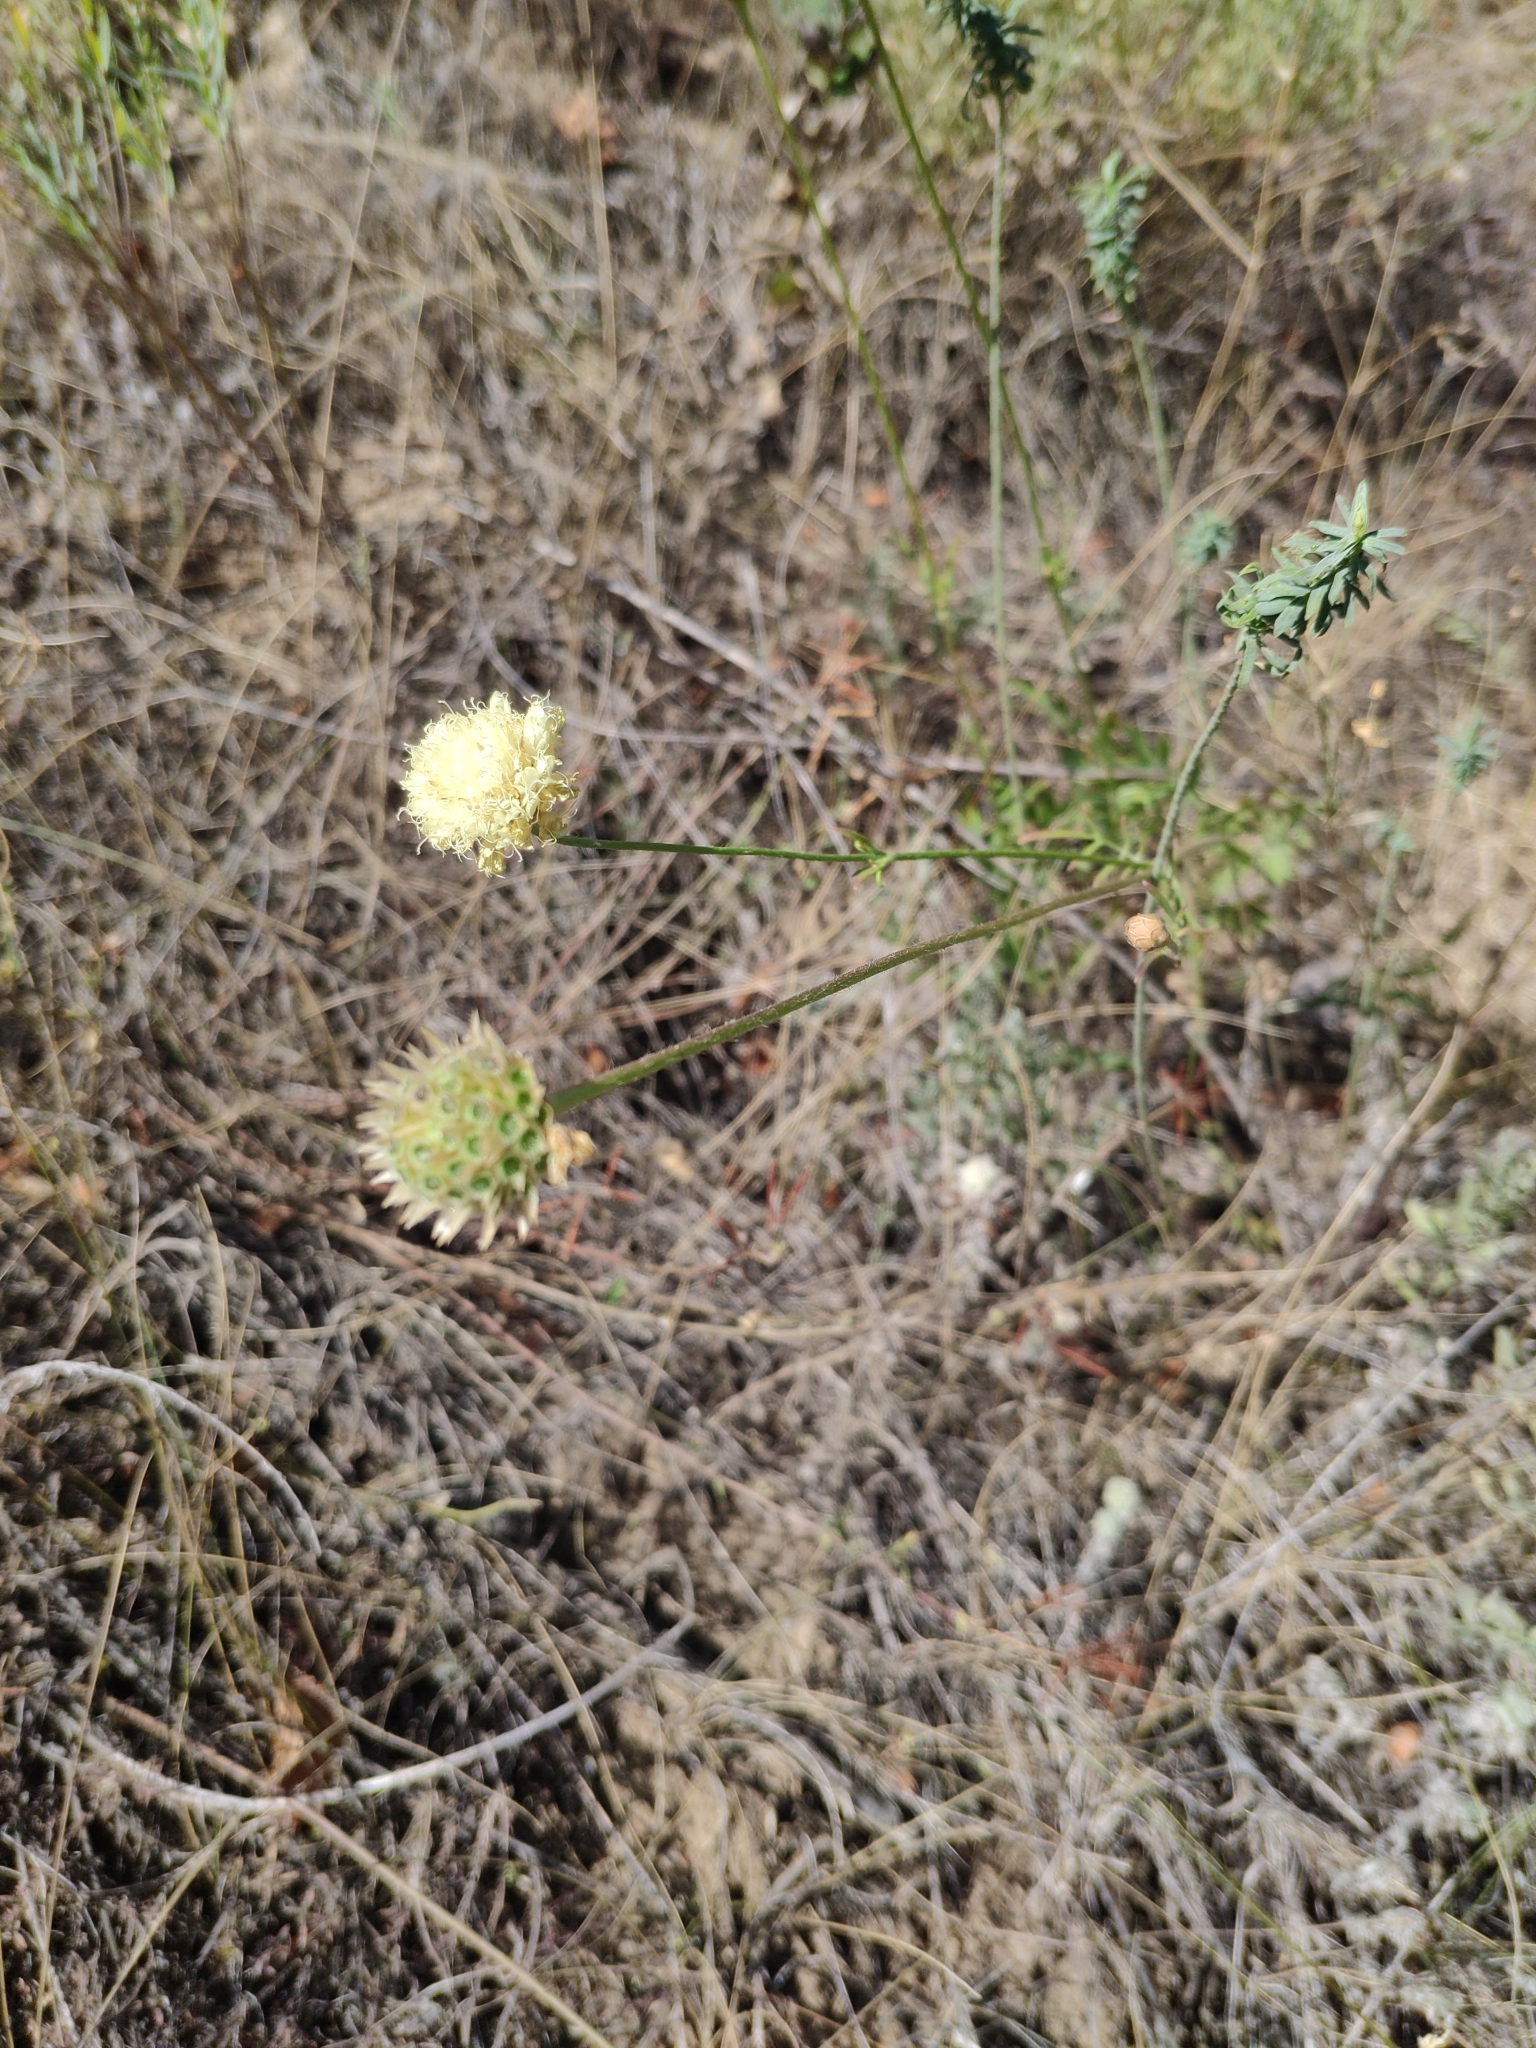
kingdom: Plantae
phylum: Tracheophyta
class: Magnoliopsida
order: Dipsacales
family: Caprifoliaceae
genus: Cephalaria
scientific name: Cephalaria uralensis
